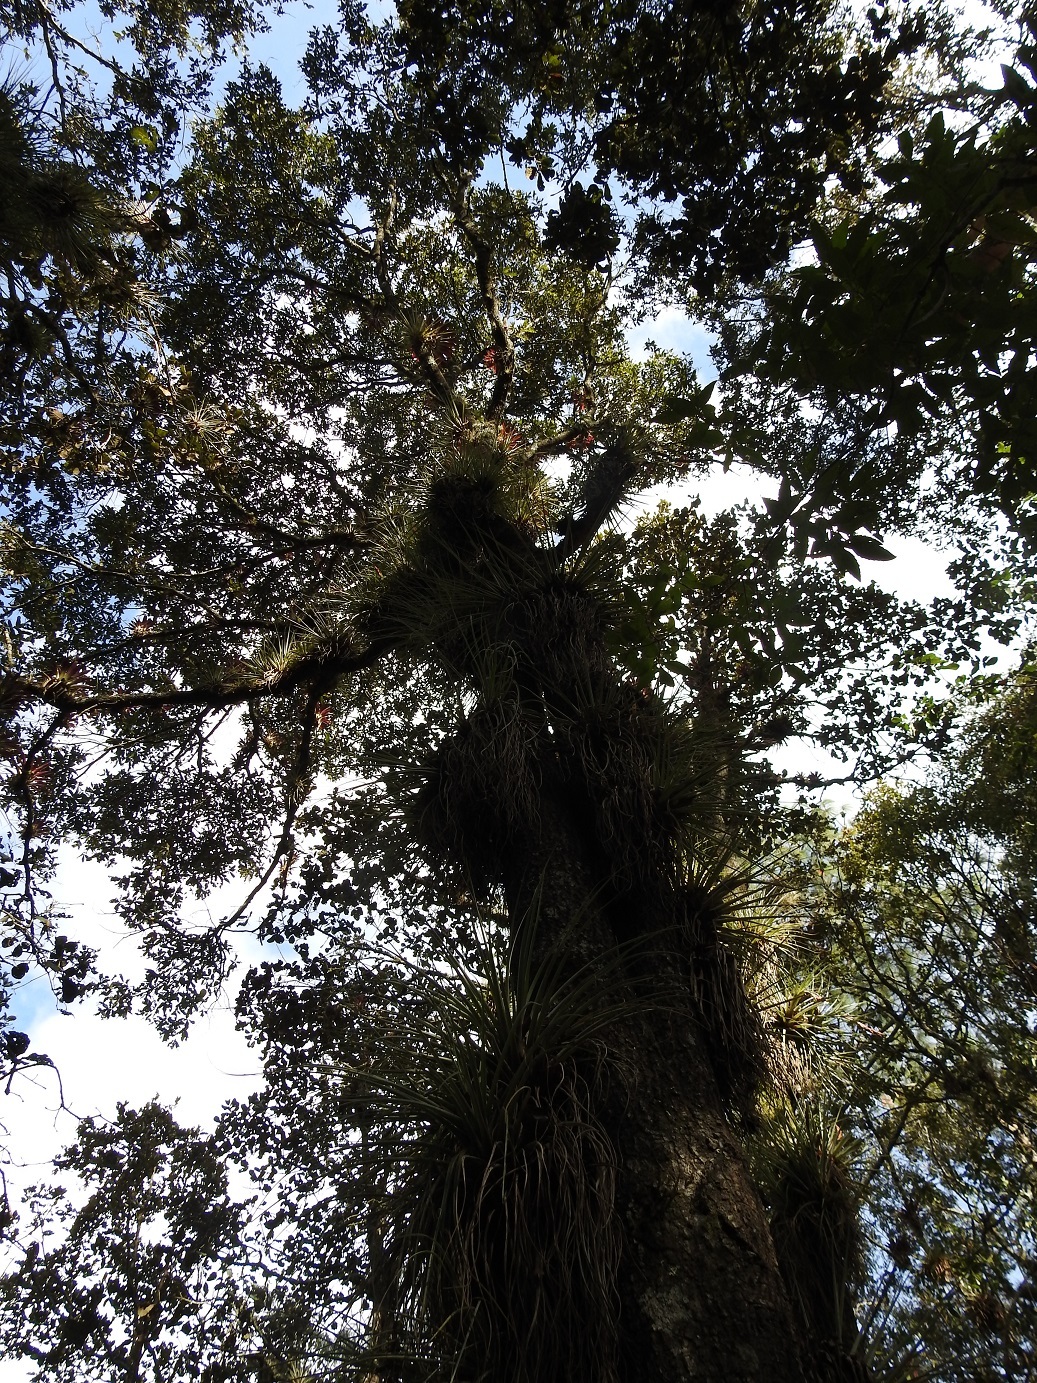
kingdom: Plantae
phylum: Tracheophyta
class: Magnoliopsida
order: Fagales
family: Fagaceae
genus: Quercus
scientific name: Quercus segoviensis
